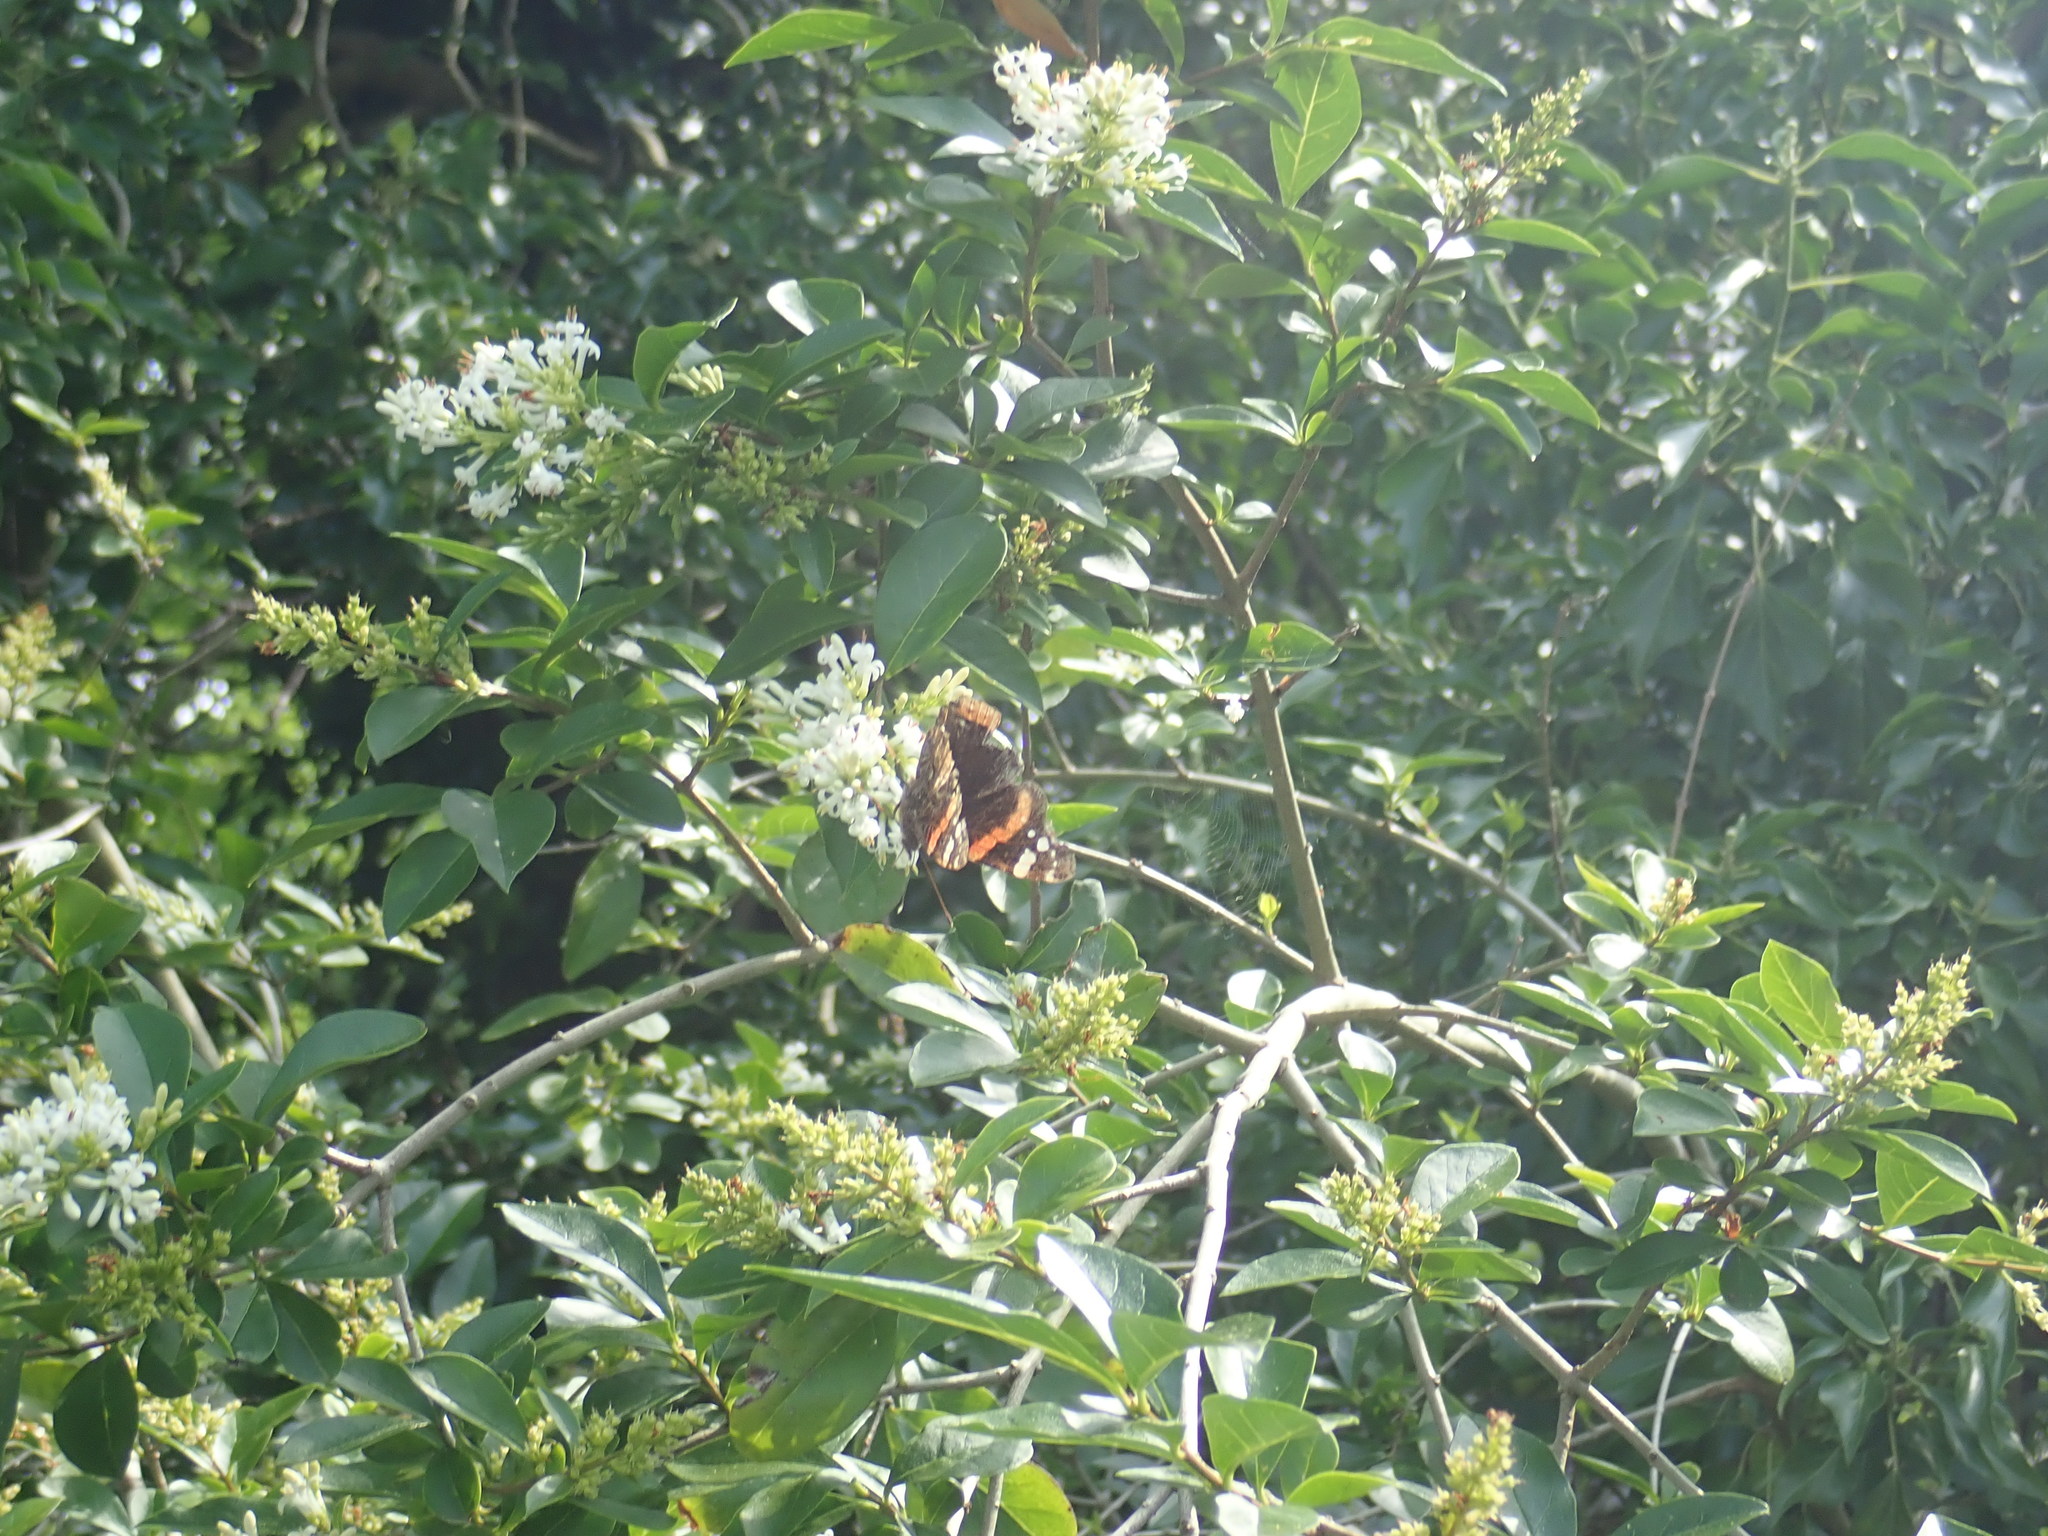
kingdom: Animalia
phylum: Arthropoda
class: Insecta
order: Lepidoptera
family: Nymphalidae
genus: Vanessa
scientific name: Vanessa atalanta
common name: Red admiral
